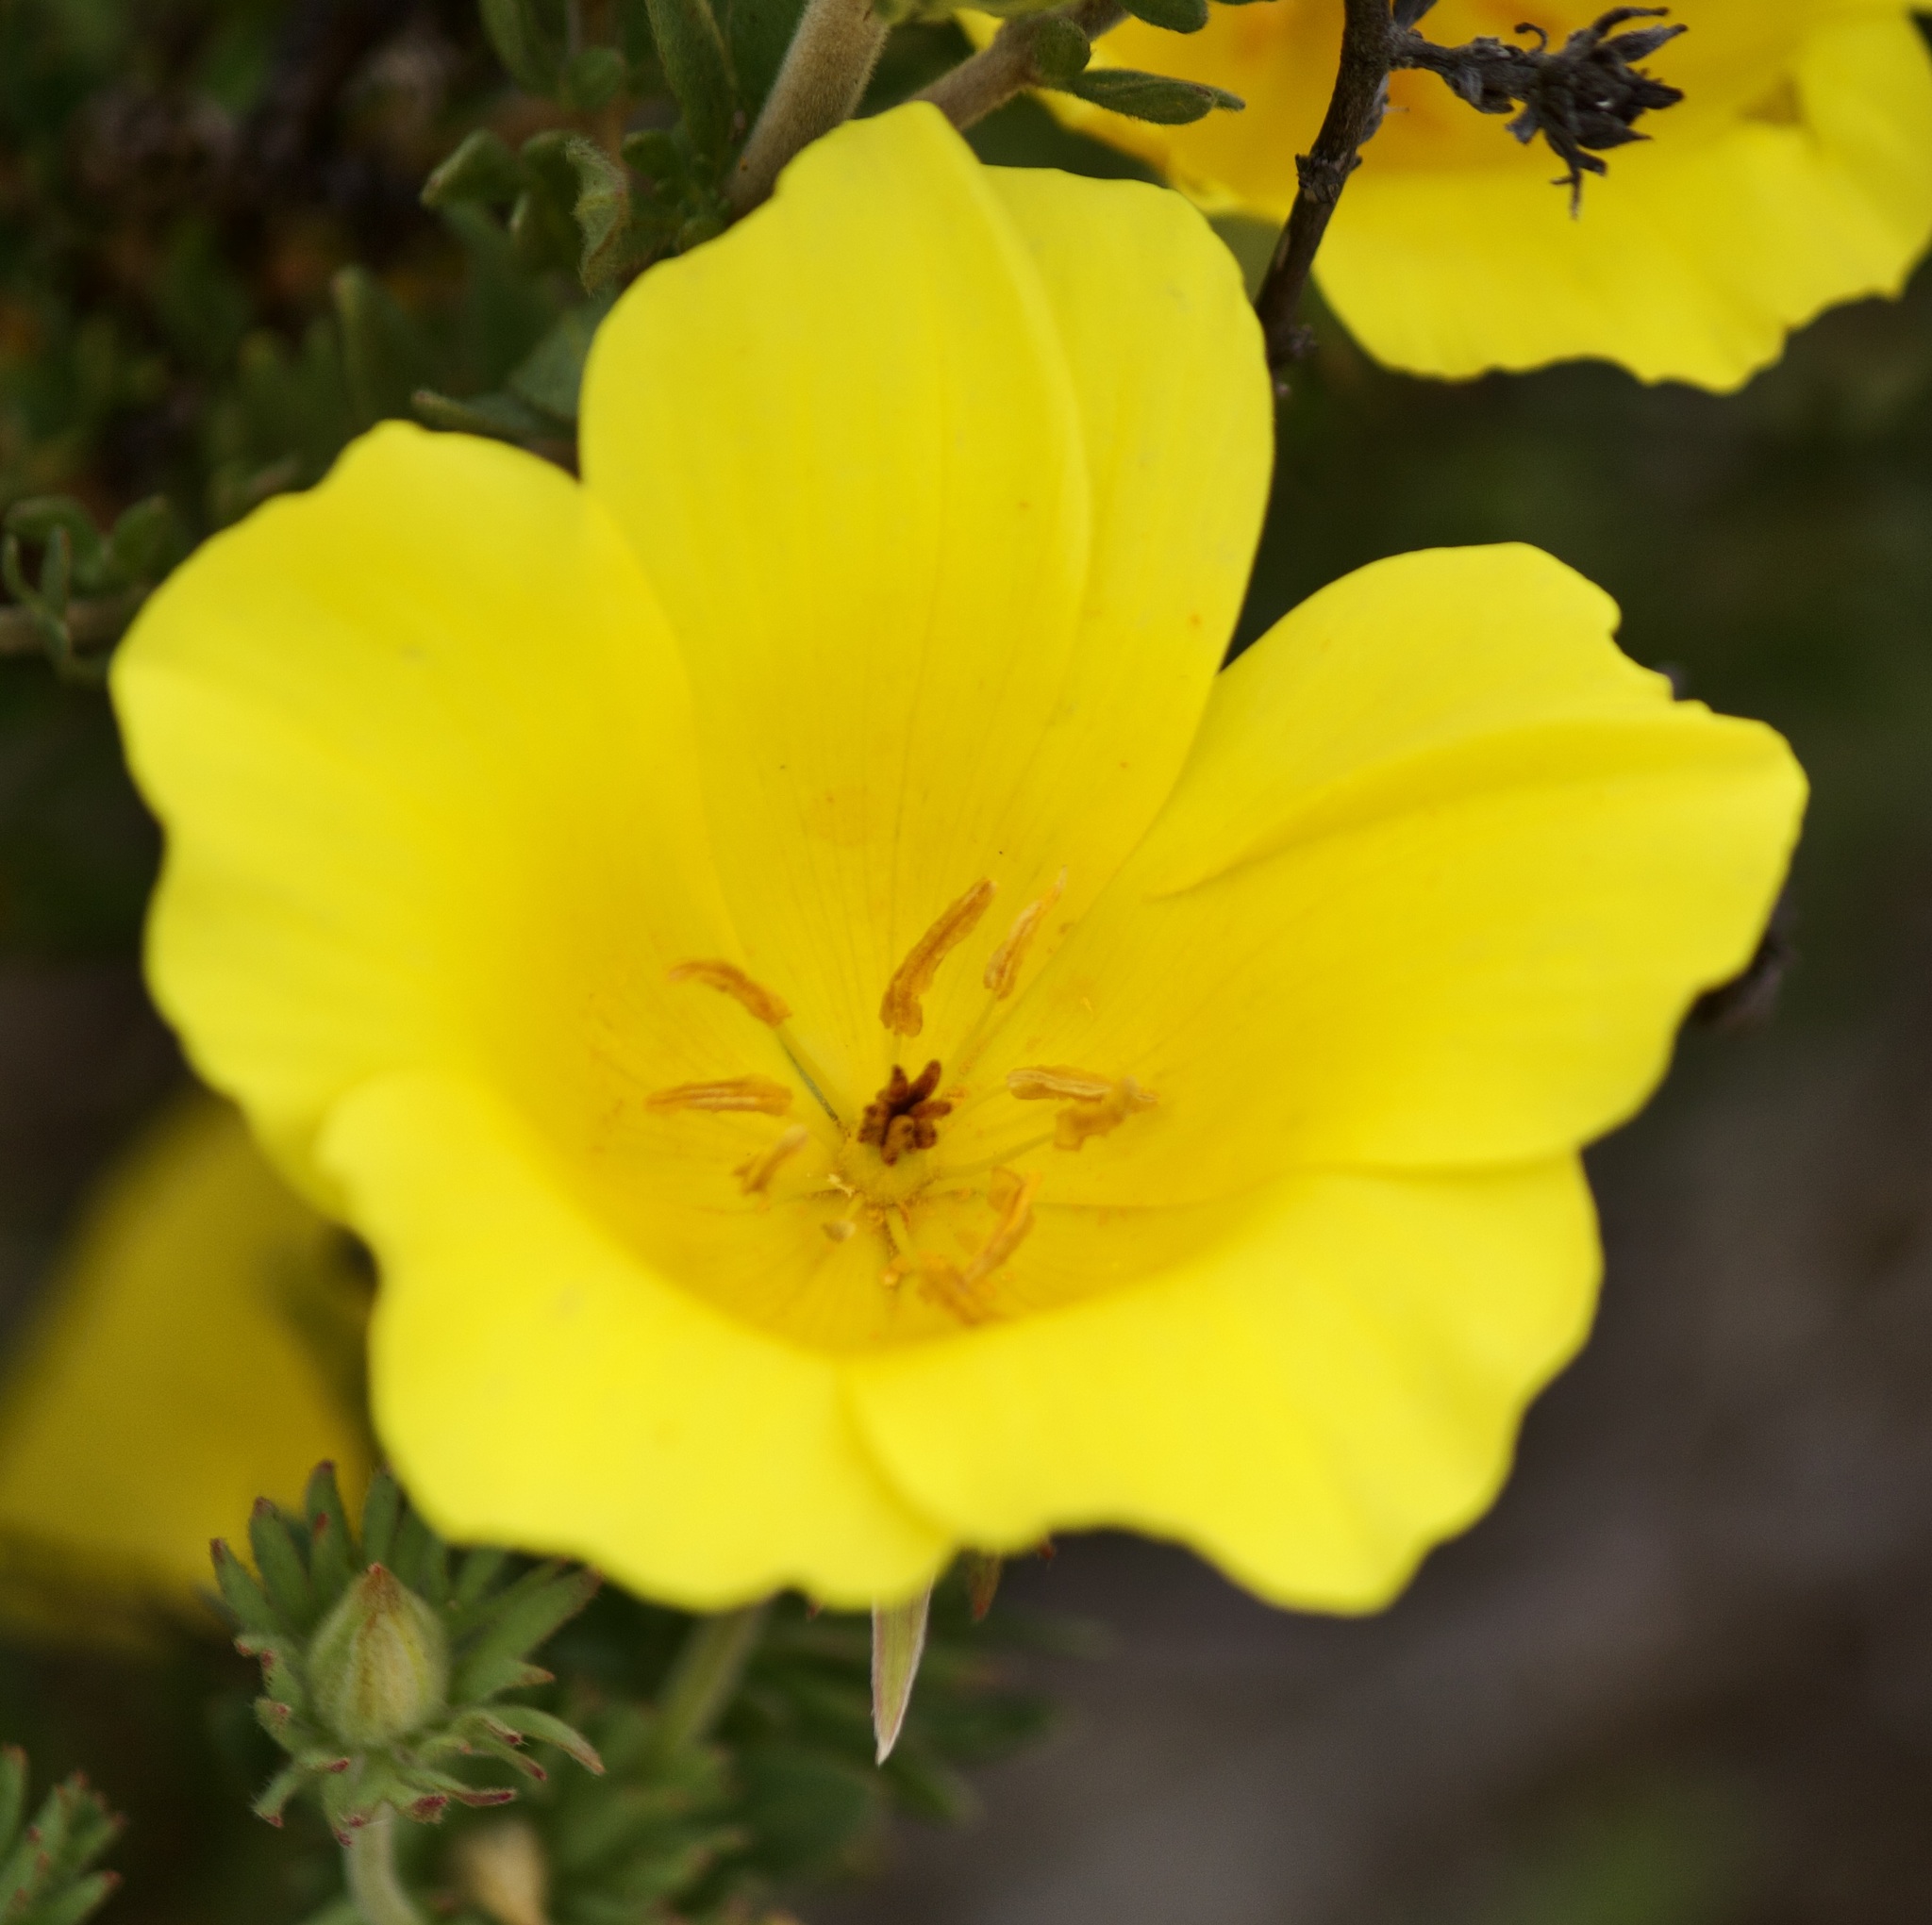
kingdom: Plantae
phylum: Tracheophyta
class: Magnoliopsida
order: Geraniales
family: Vivianiaceae
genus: Balbisia
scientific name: Balbisia peduncularis
